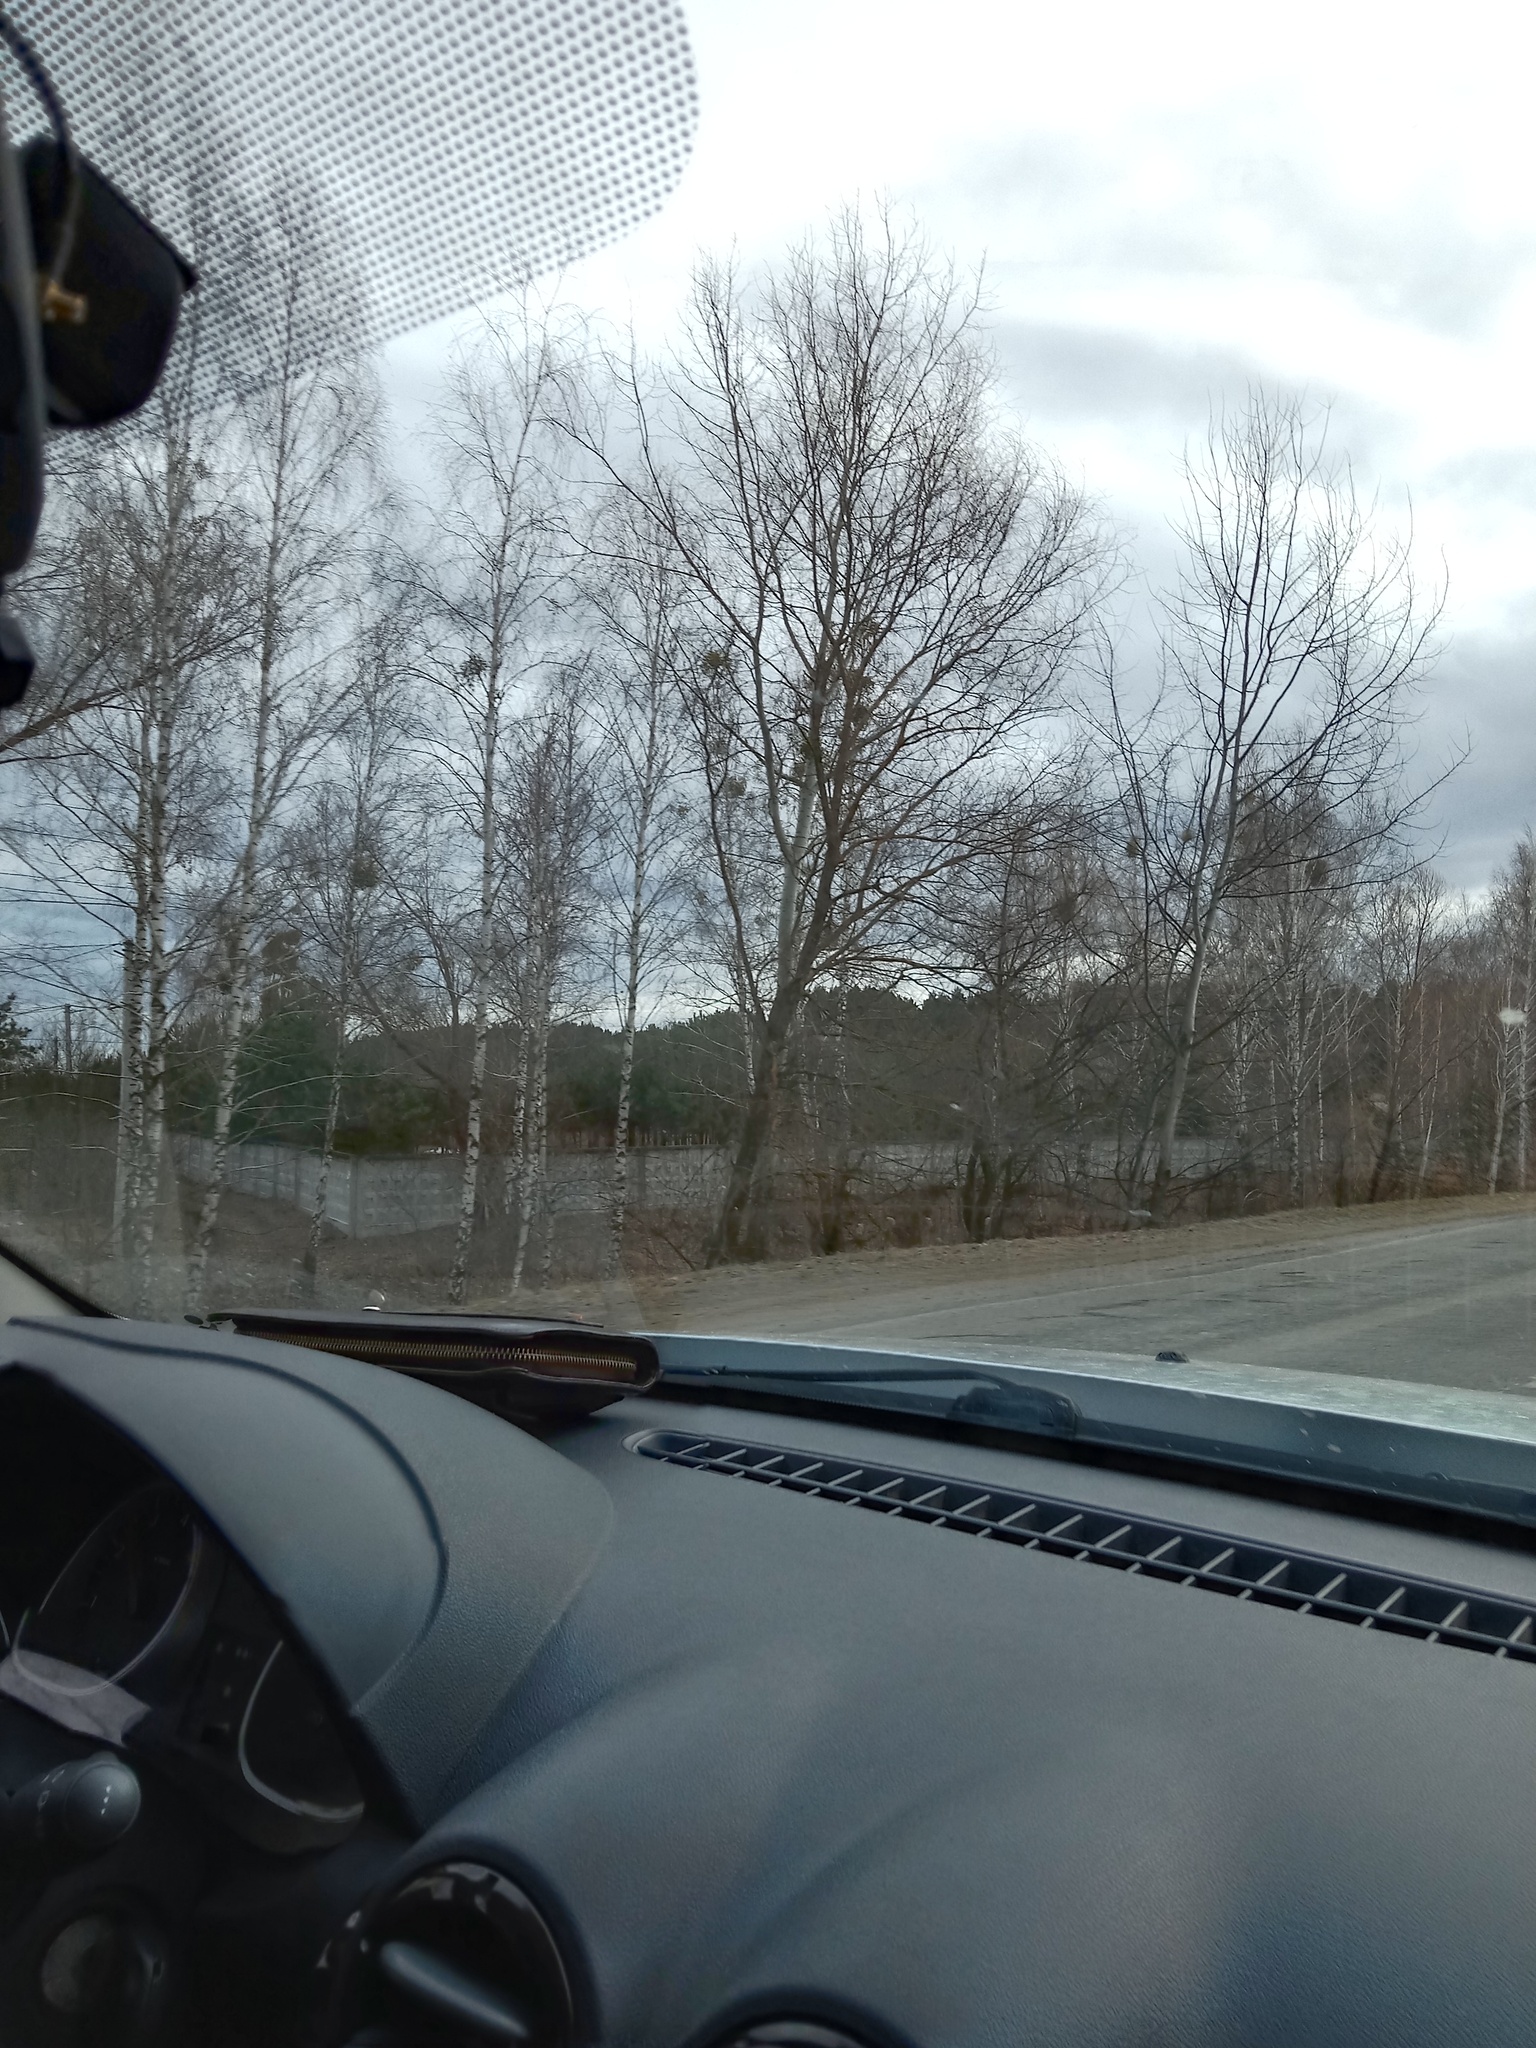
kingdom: Plantae
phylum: Tracheophyta
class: Magnoliopsida
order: Santalales
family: Viscaceae
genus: Viscum
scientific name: Viscum album
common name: Mistletoe
